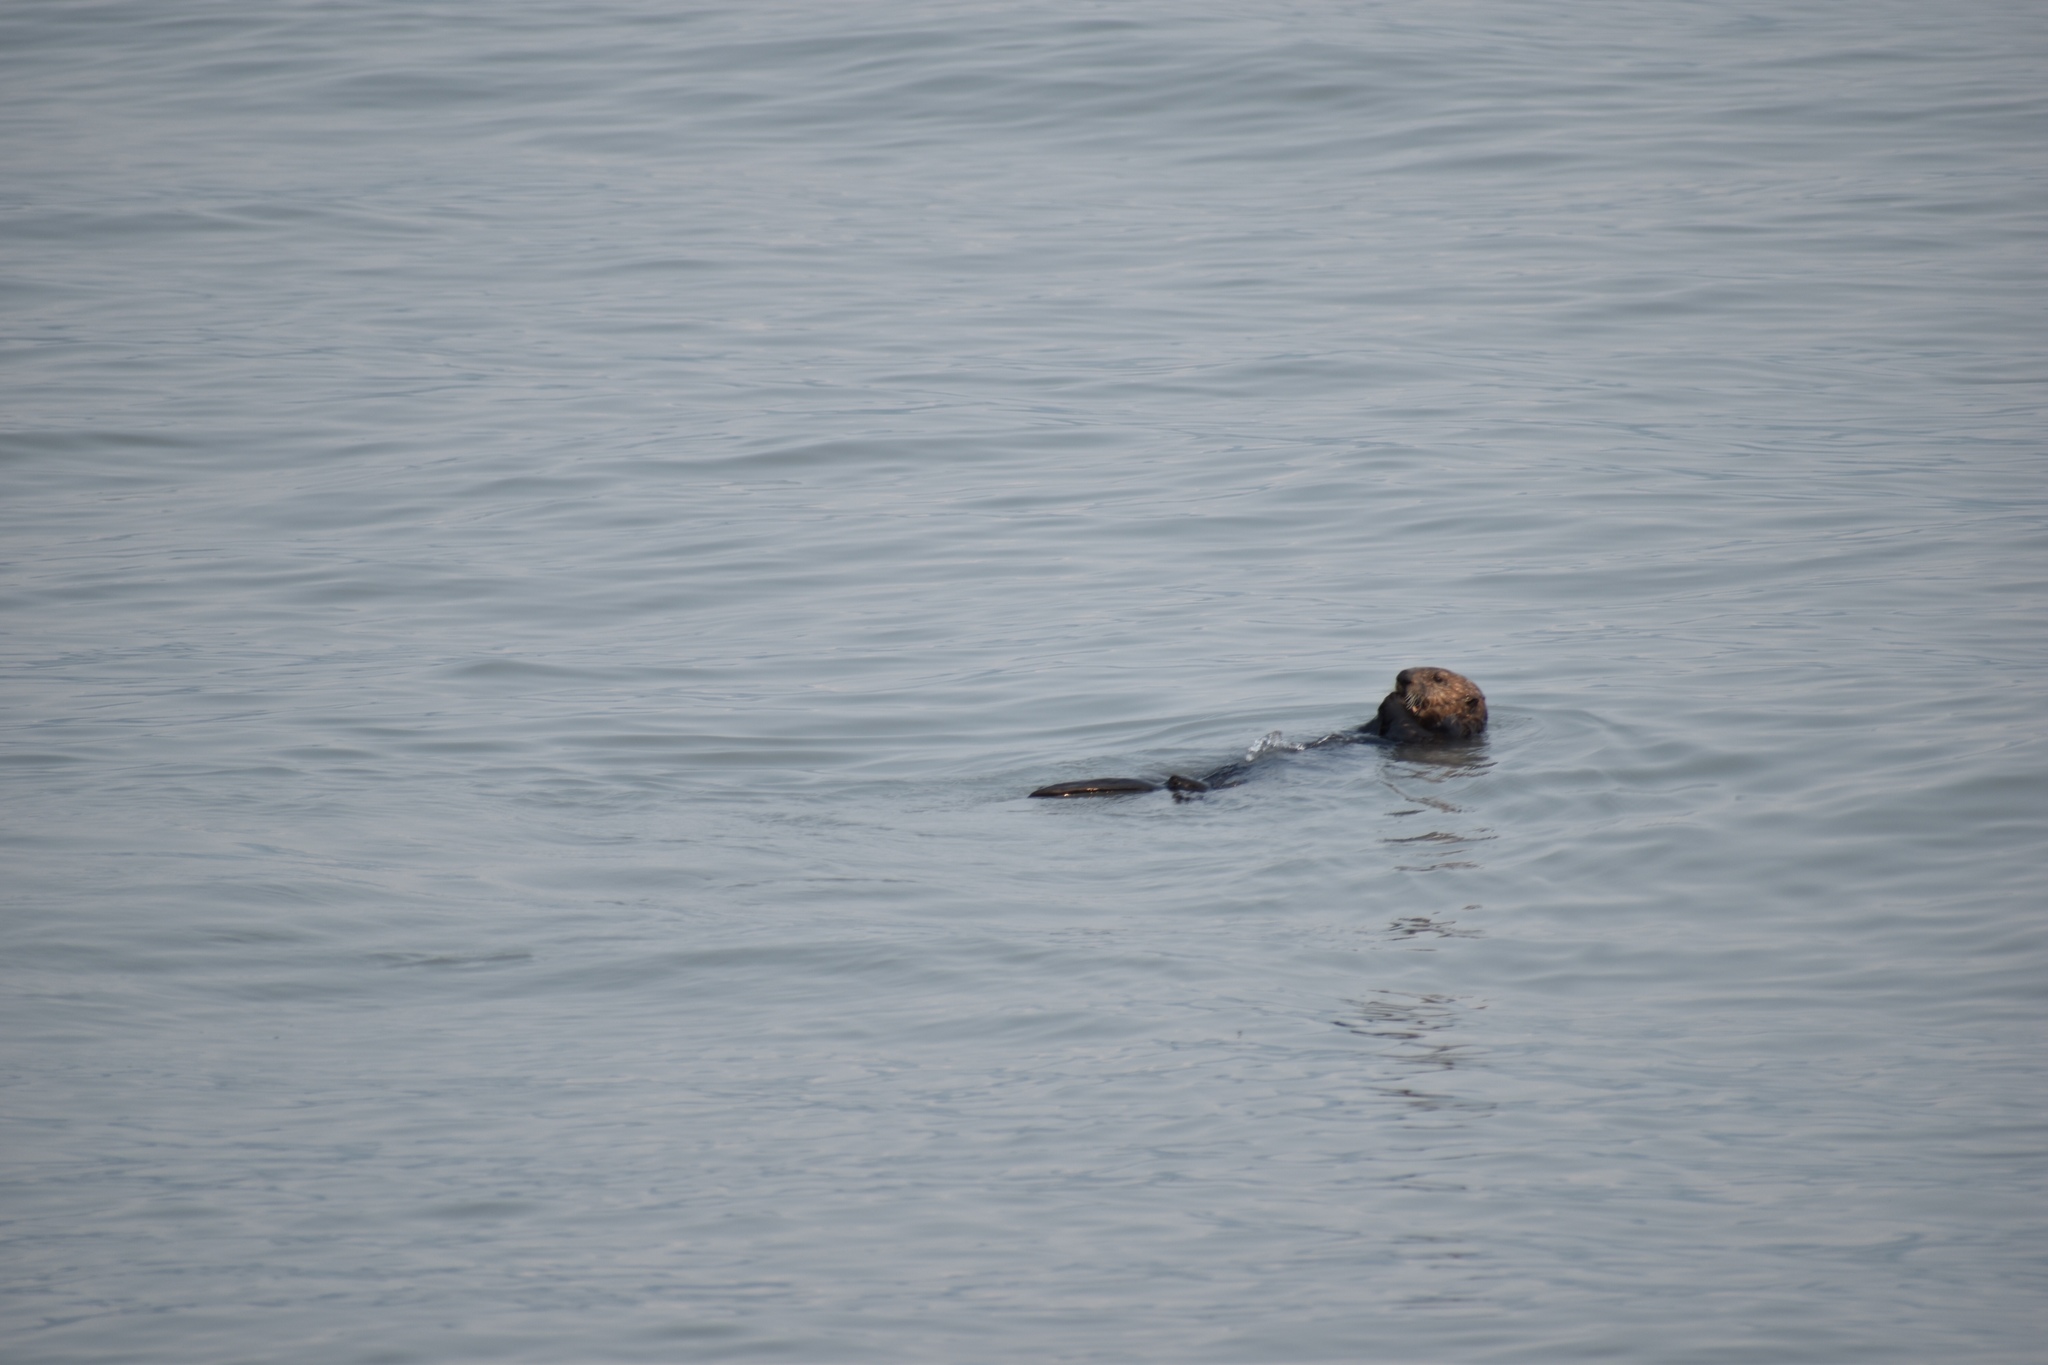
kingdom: Animalia
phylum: Chordata
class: Mammalia
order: Carnivora
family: Mustelidae
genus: Enhydra
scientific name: Enhydra lutris
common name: Sea otter
